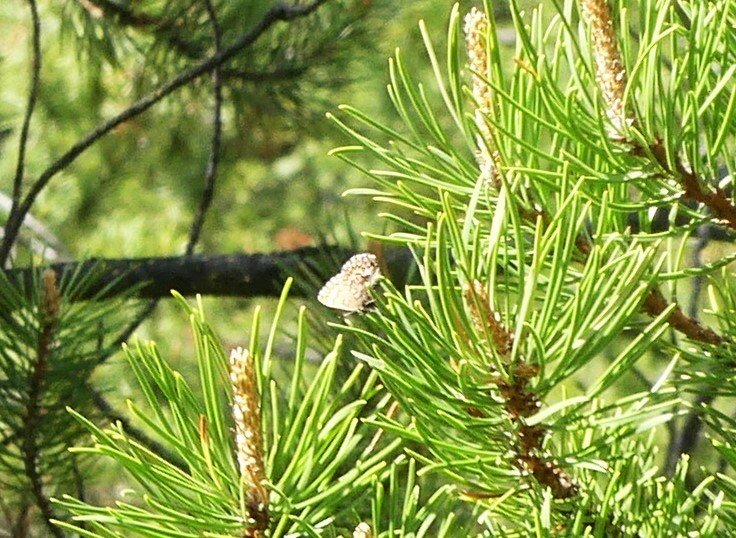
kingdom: Animalia
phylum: Arthropoda
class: Insecta
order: Lepidoptera
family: Lycaenidae
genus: Incisalia
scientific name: Incisalia eryphon
